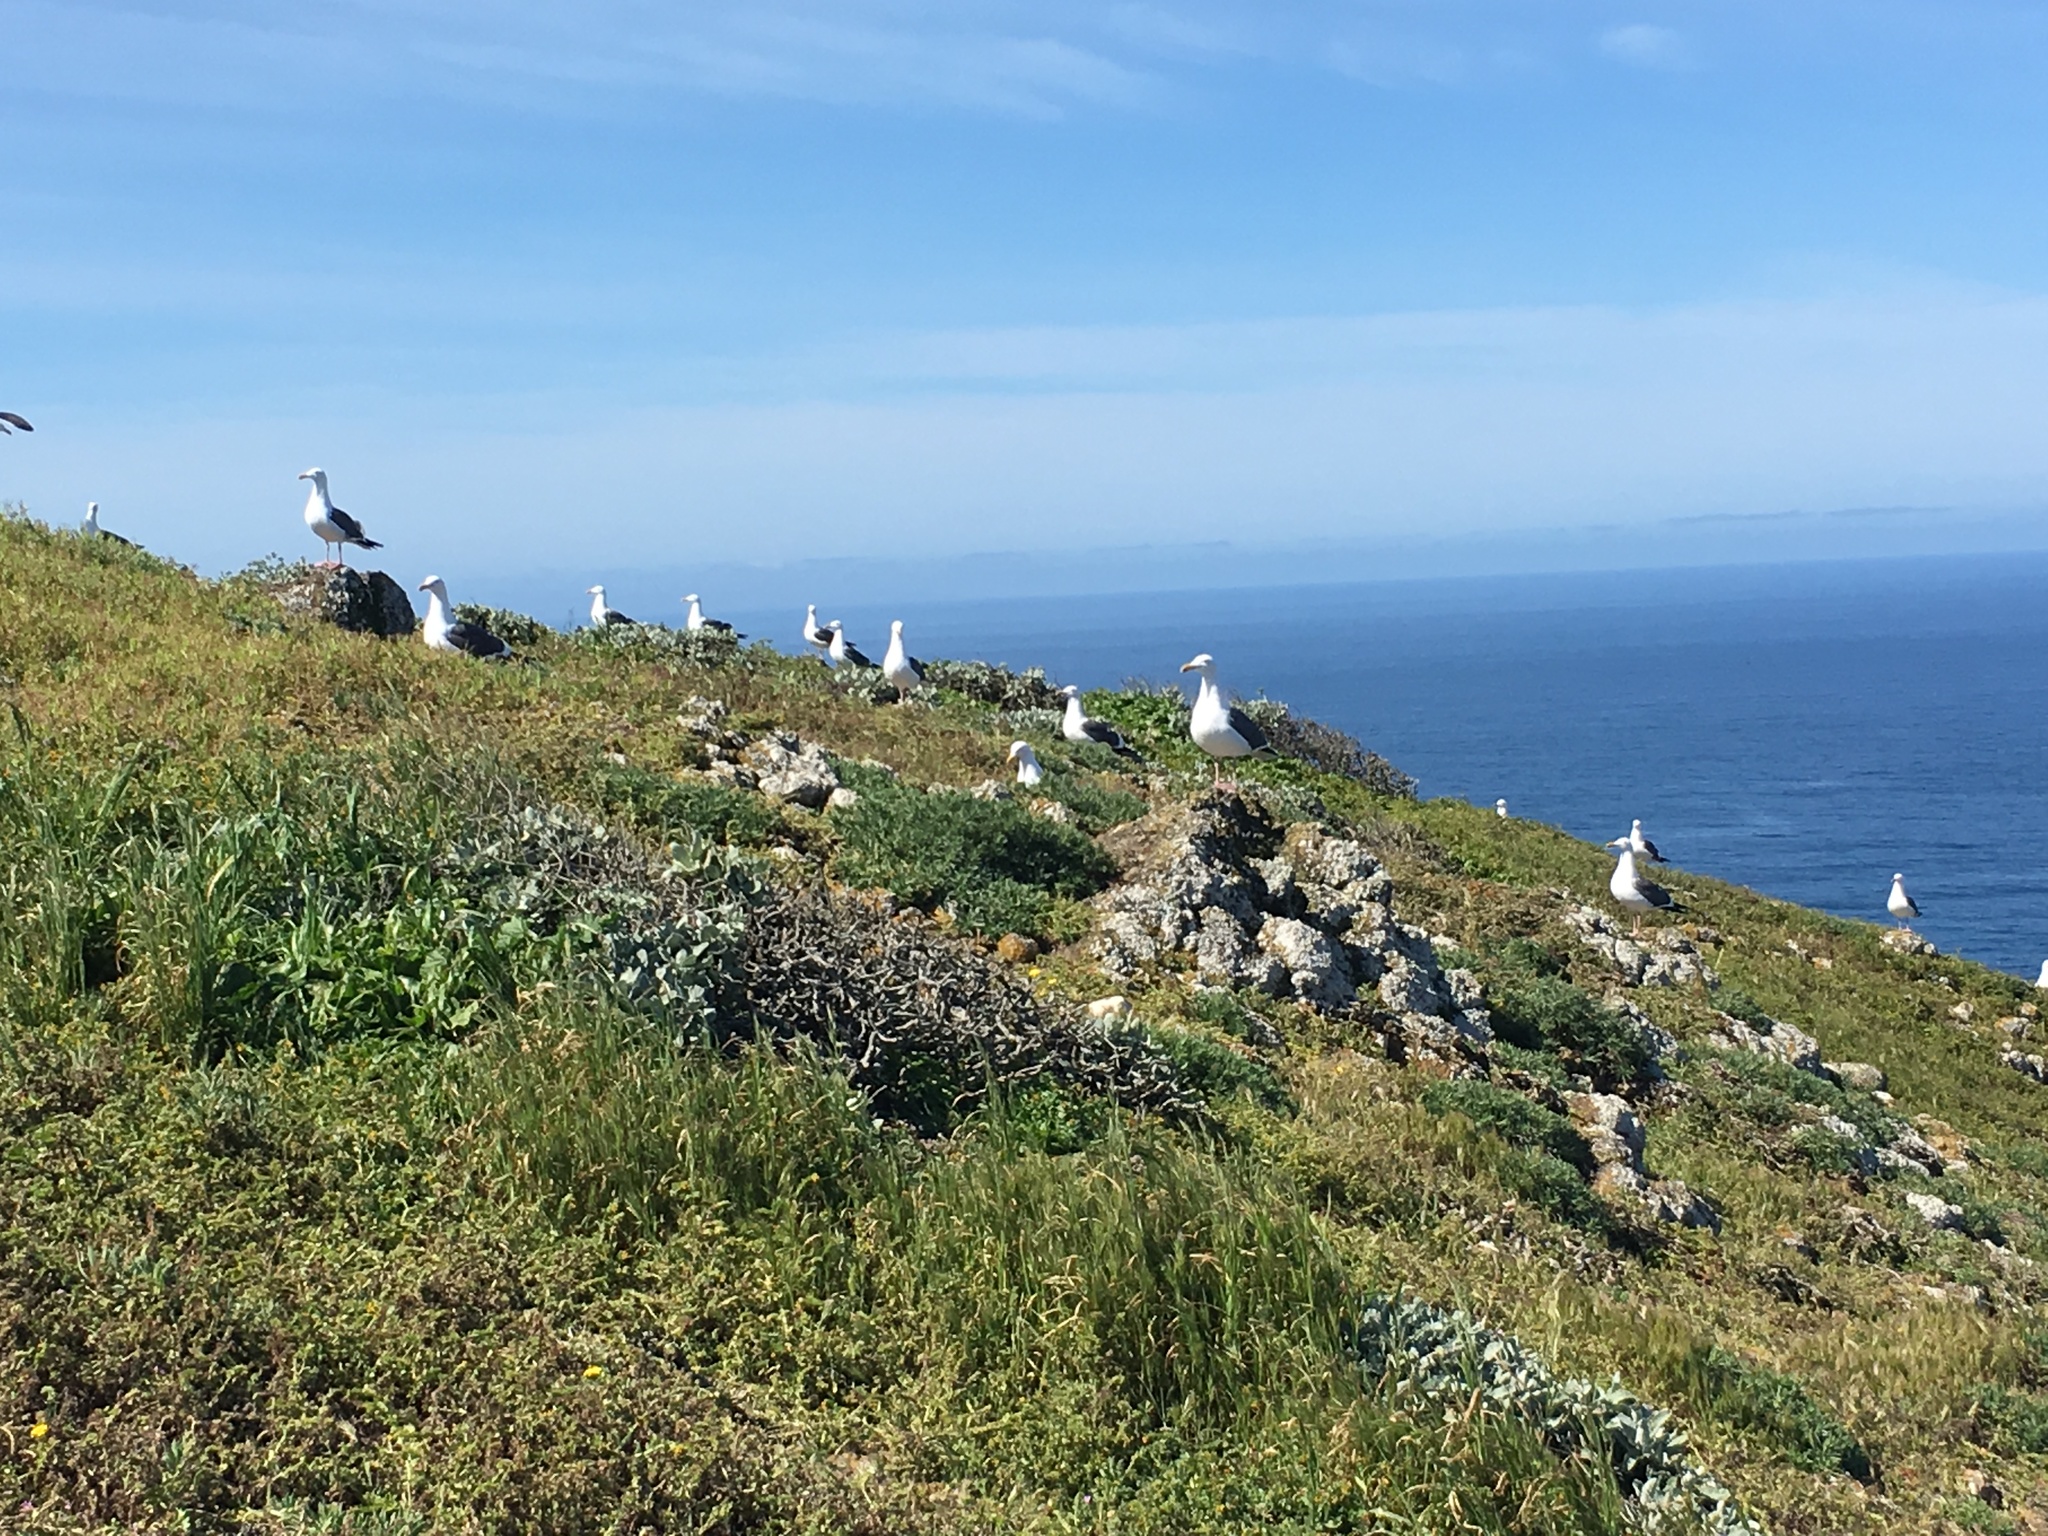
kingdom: Animalia
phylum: Chordata
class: Aves
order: Charadriiformes
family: Laridae
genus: Larus
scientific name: Larus occidentalis
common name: Western gull
